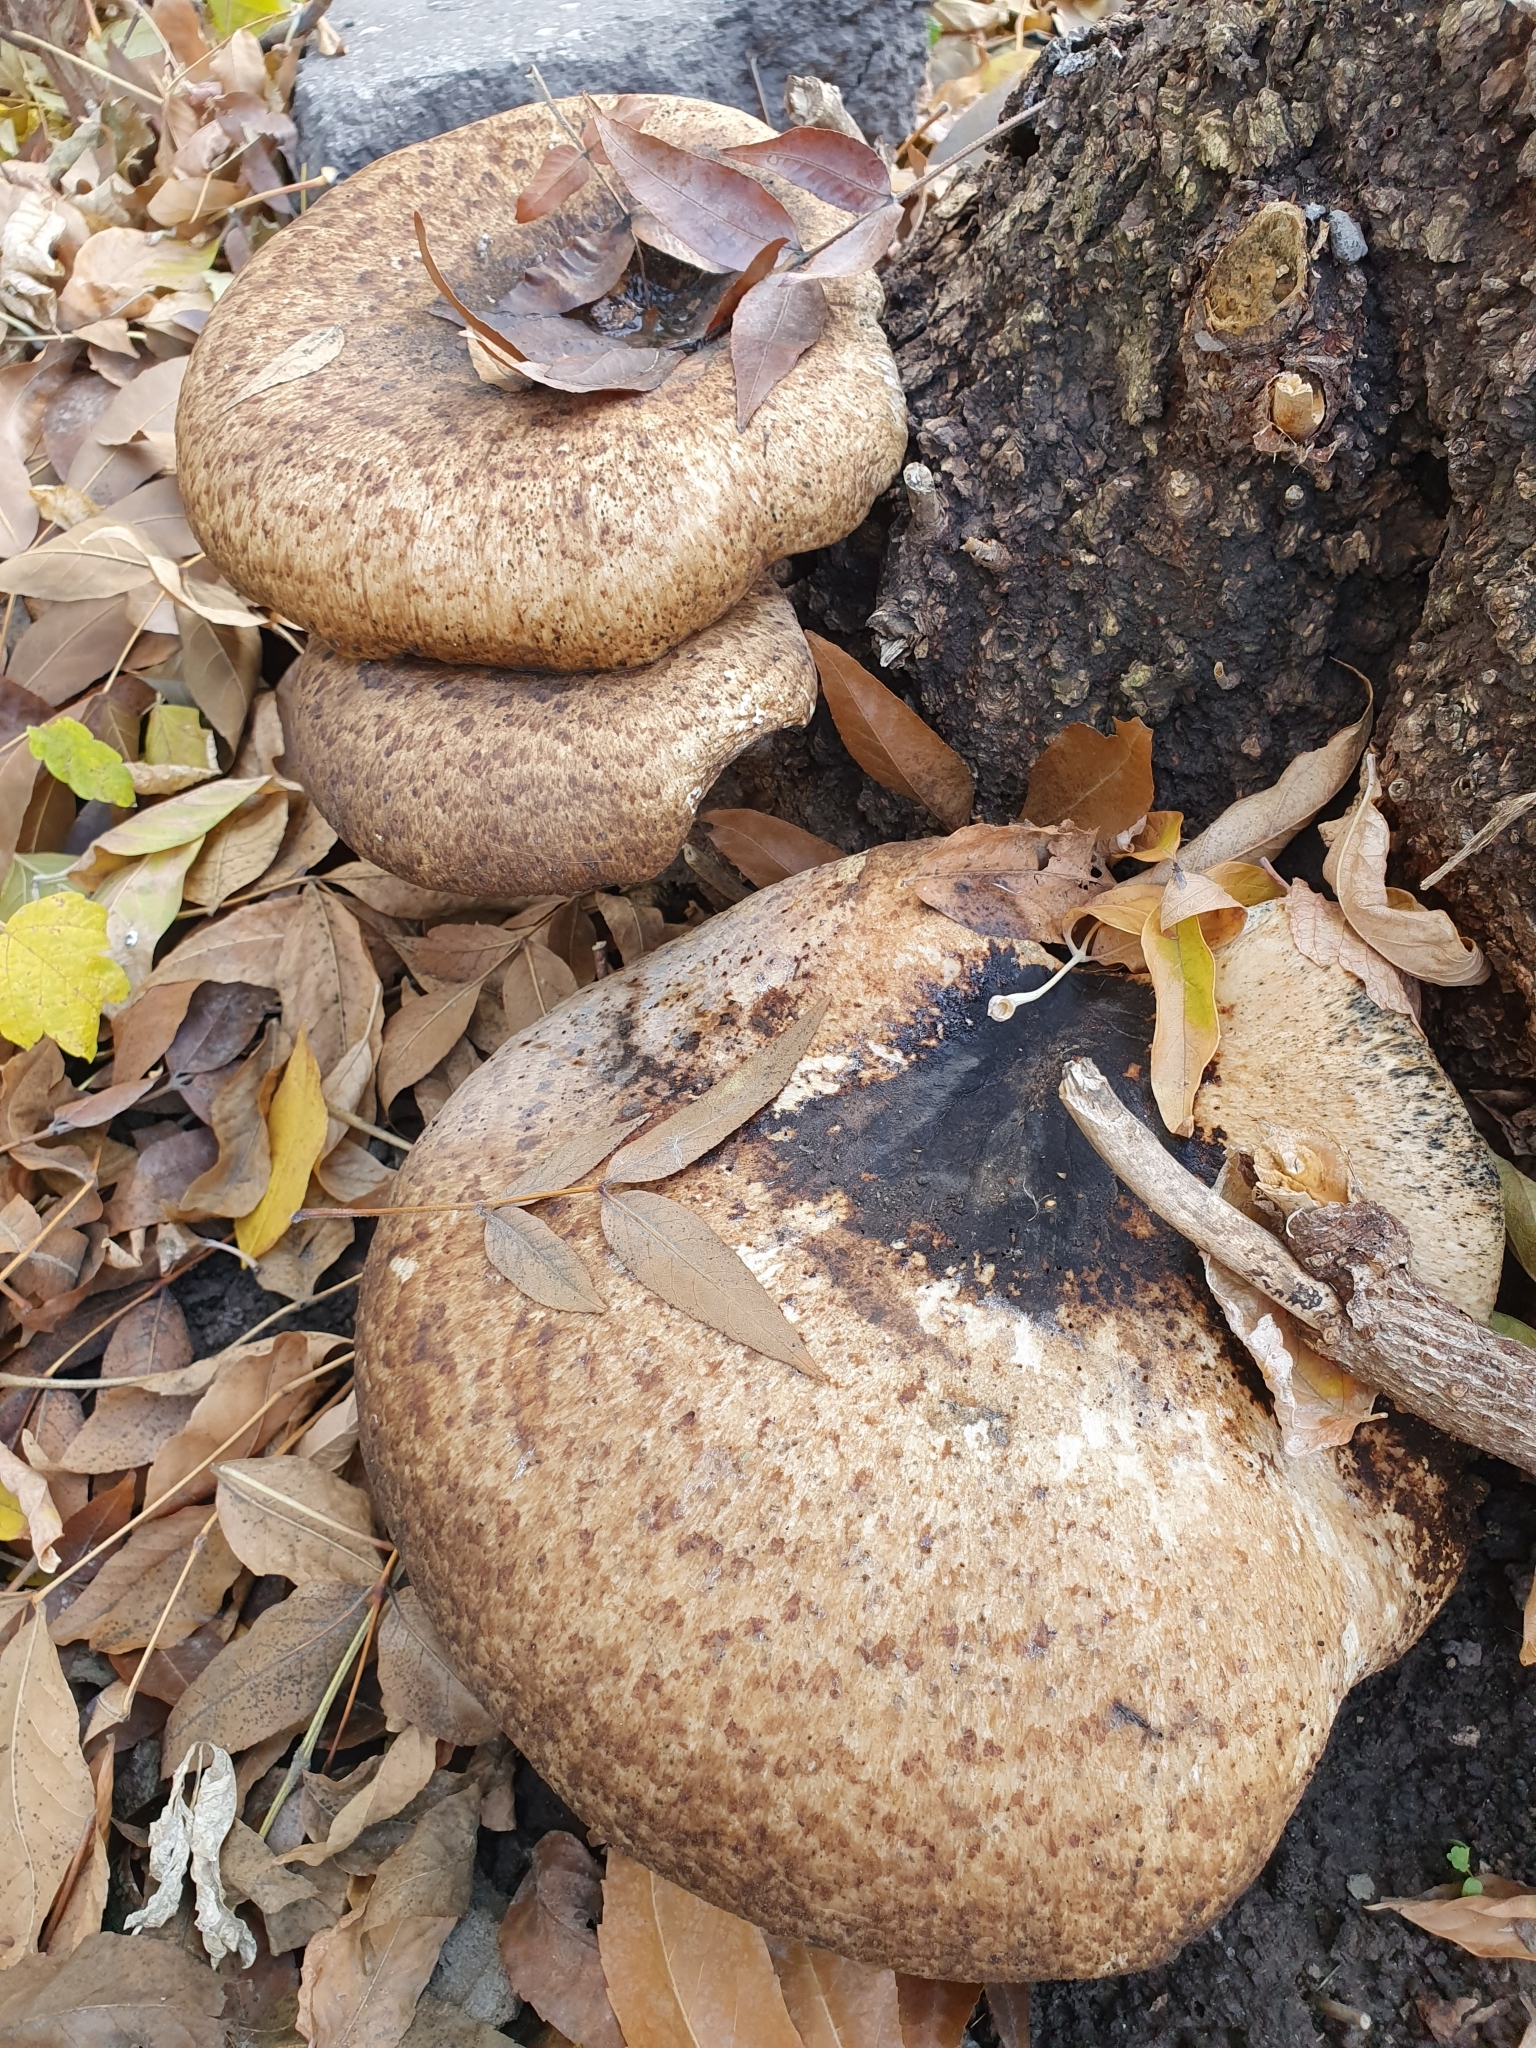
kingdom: Fungi
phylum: Basidiomycota
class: Agaricomycetes
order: Polyporales
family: Polyporaceae
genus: Cerioporus
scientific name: Cerioporus squamosus
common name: Dryad's saddle
